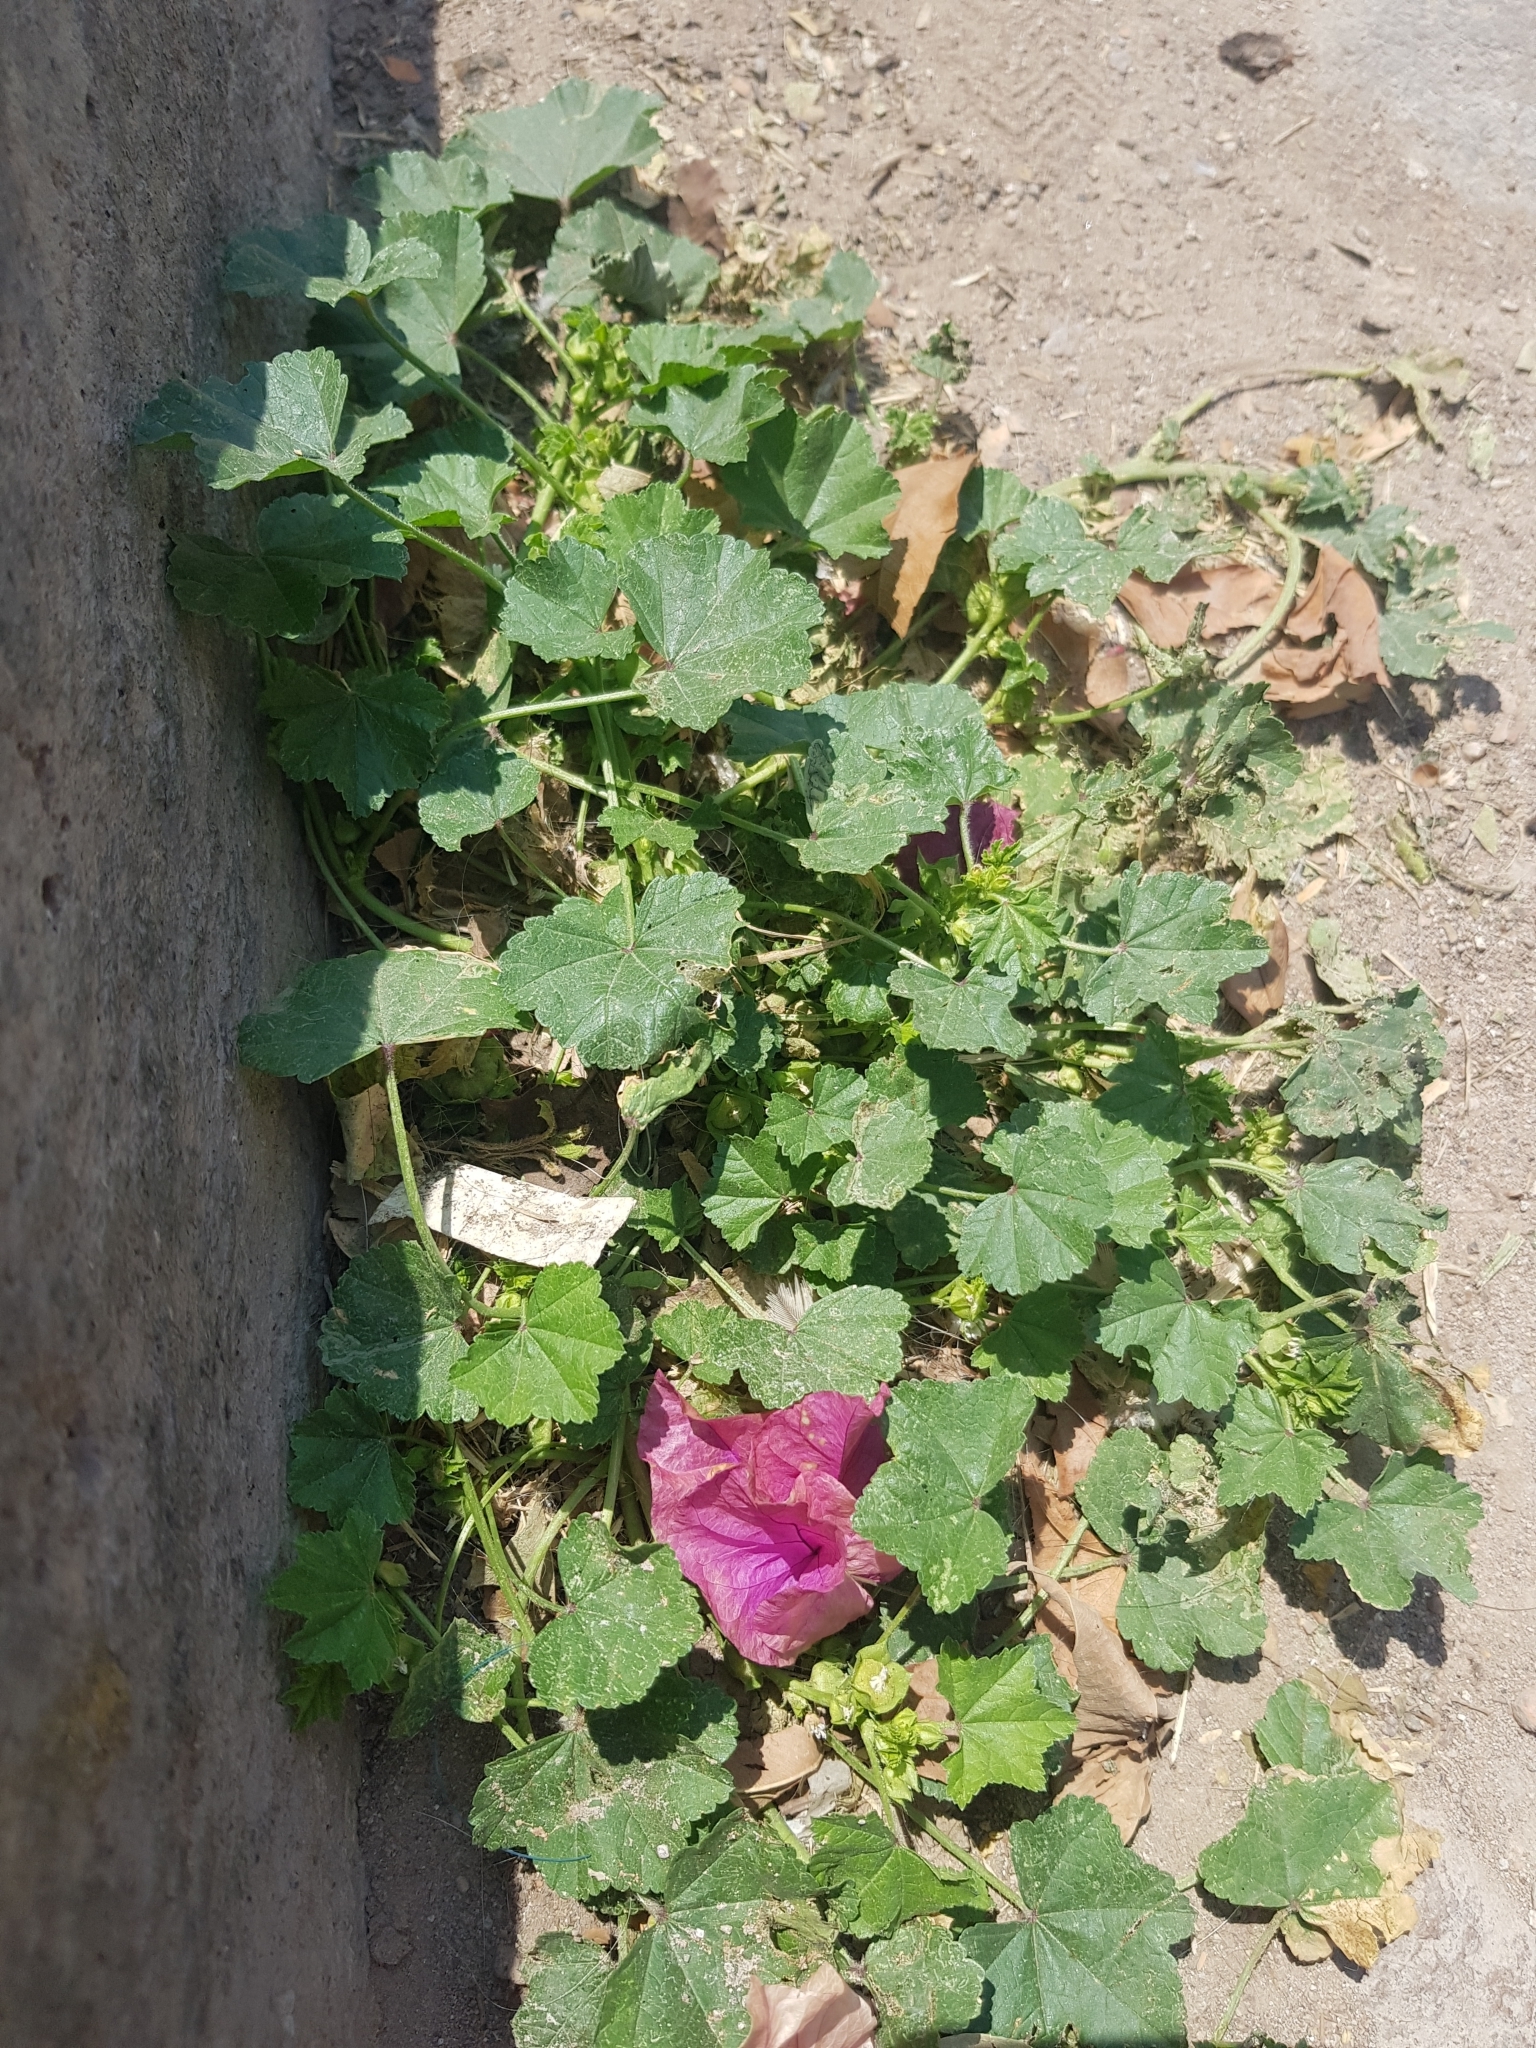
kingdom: Plantae
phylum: Tracheophyta
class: Magnoliopsida
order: Malvales
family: Malvaceae
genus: Malva
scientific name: Malva parviflora
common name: Least mallow
